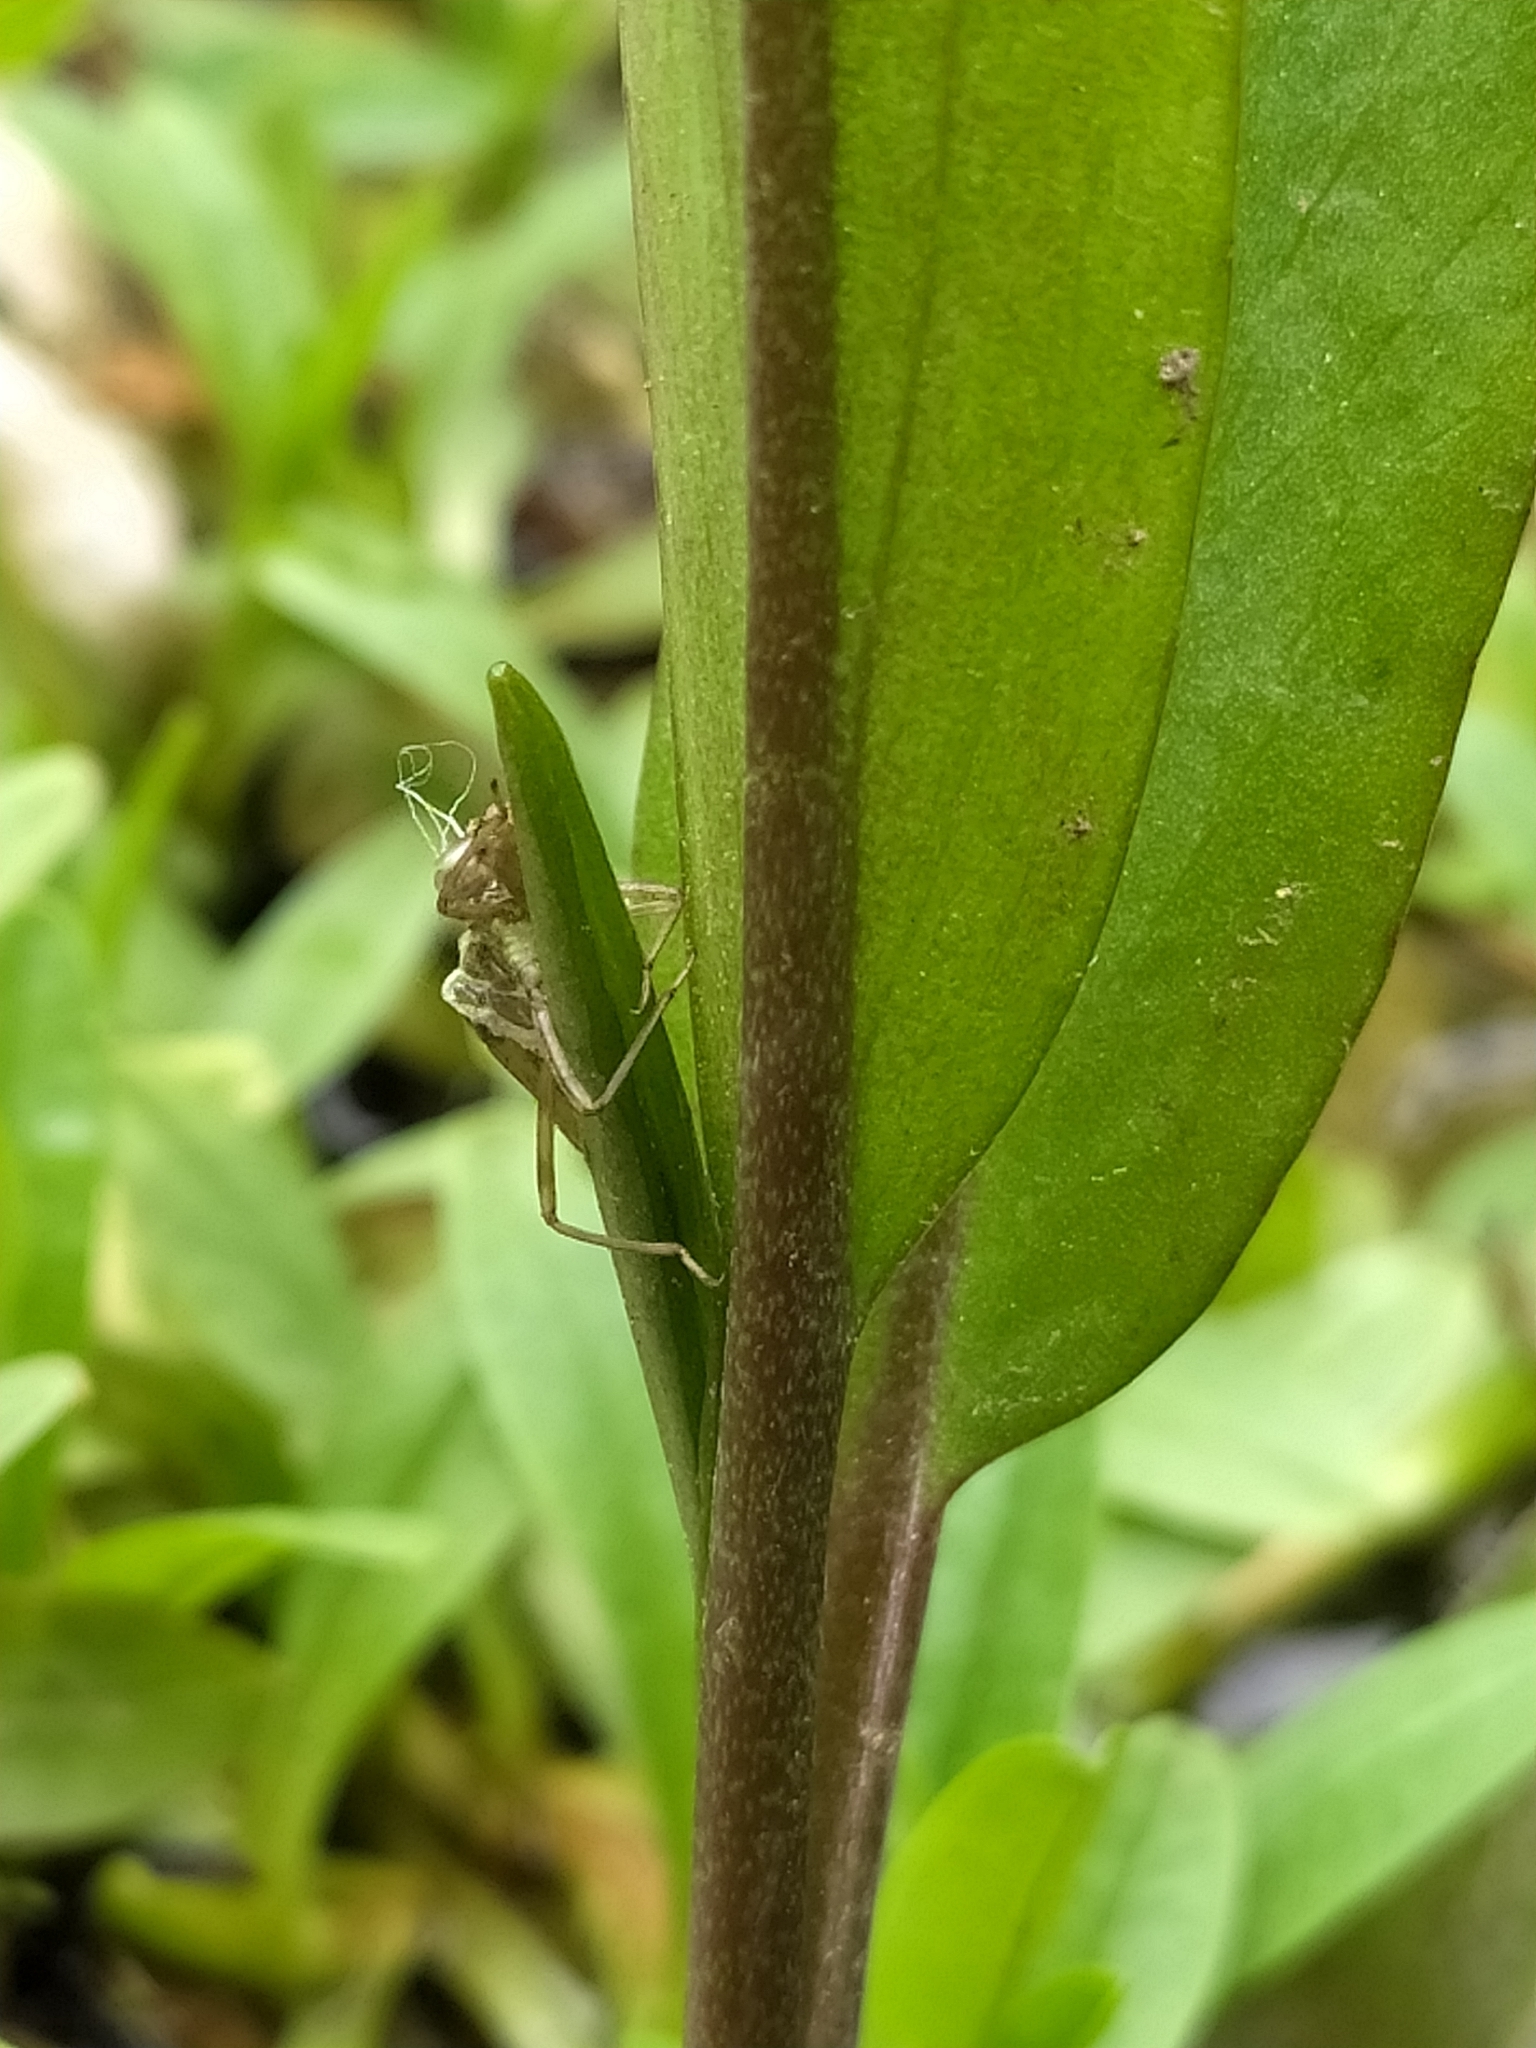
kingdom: Animalia
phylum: Arthropoda
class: Insecta
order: Odonata
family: Coenagrionidae
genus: Pyrrhosoma
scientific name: Pyrrhosoma nymphula
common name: Large red damsel
